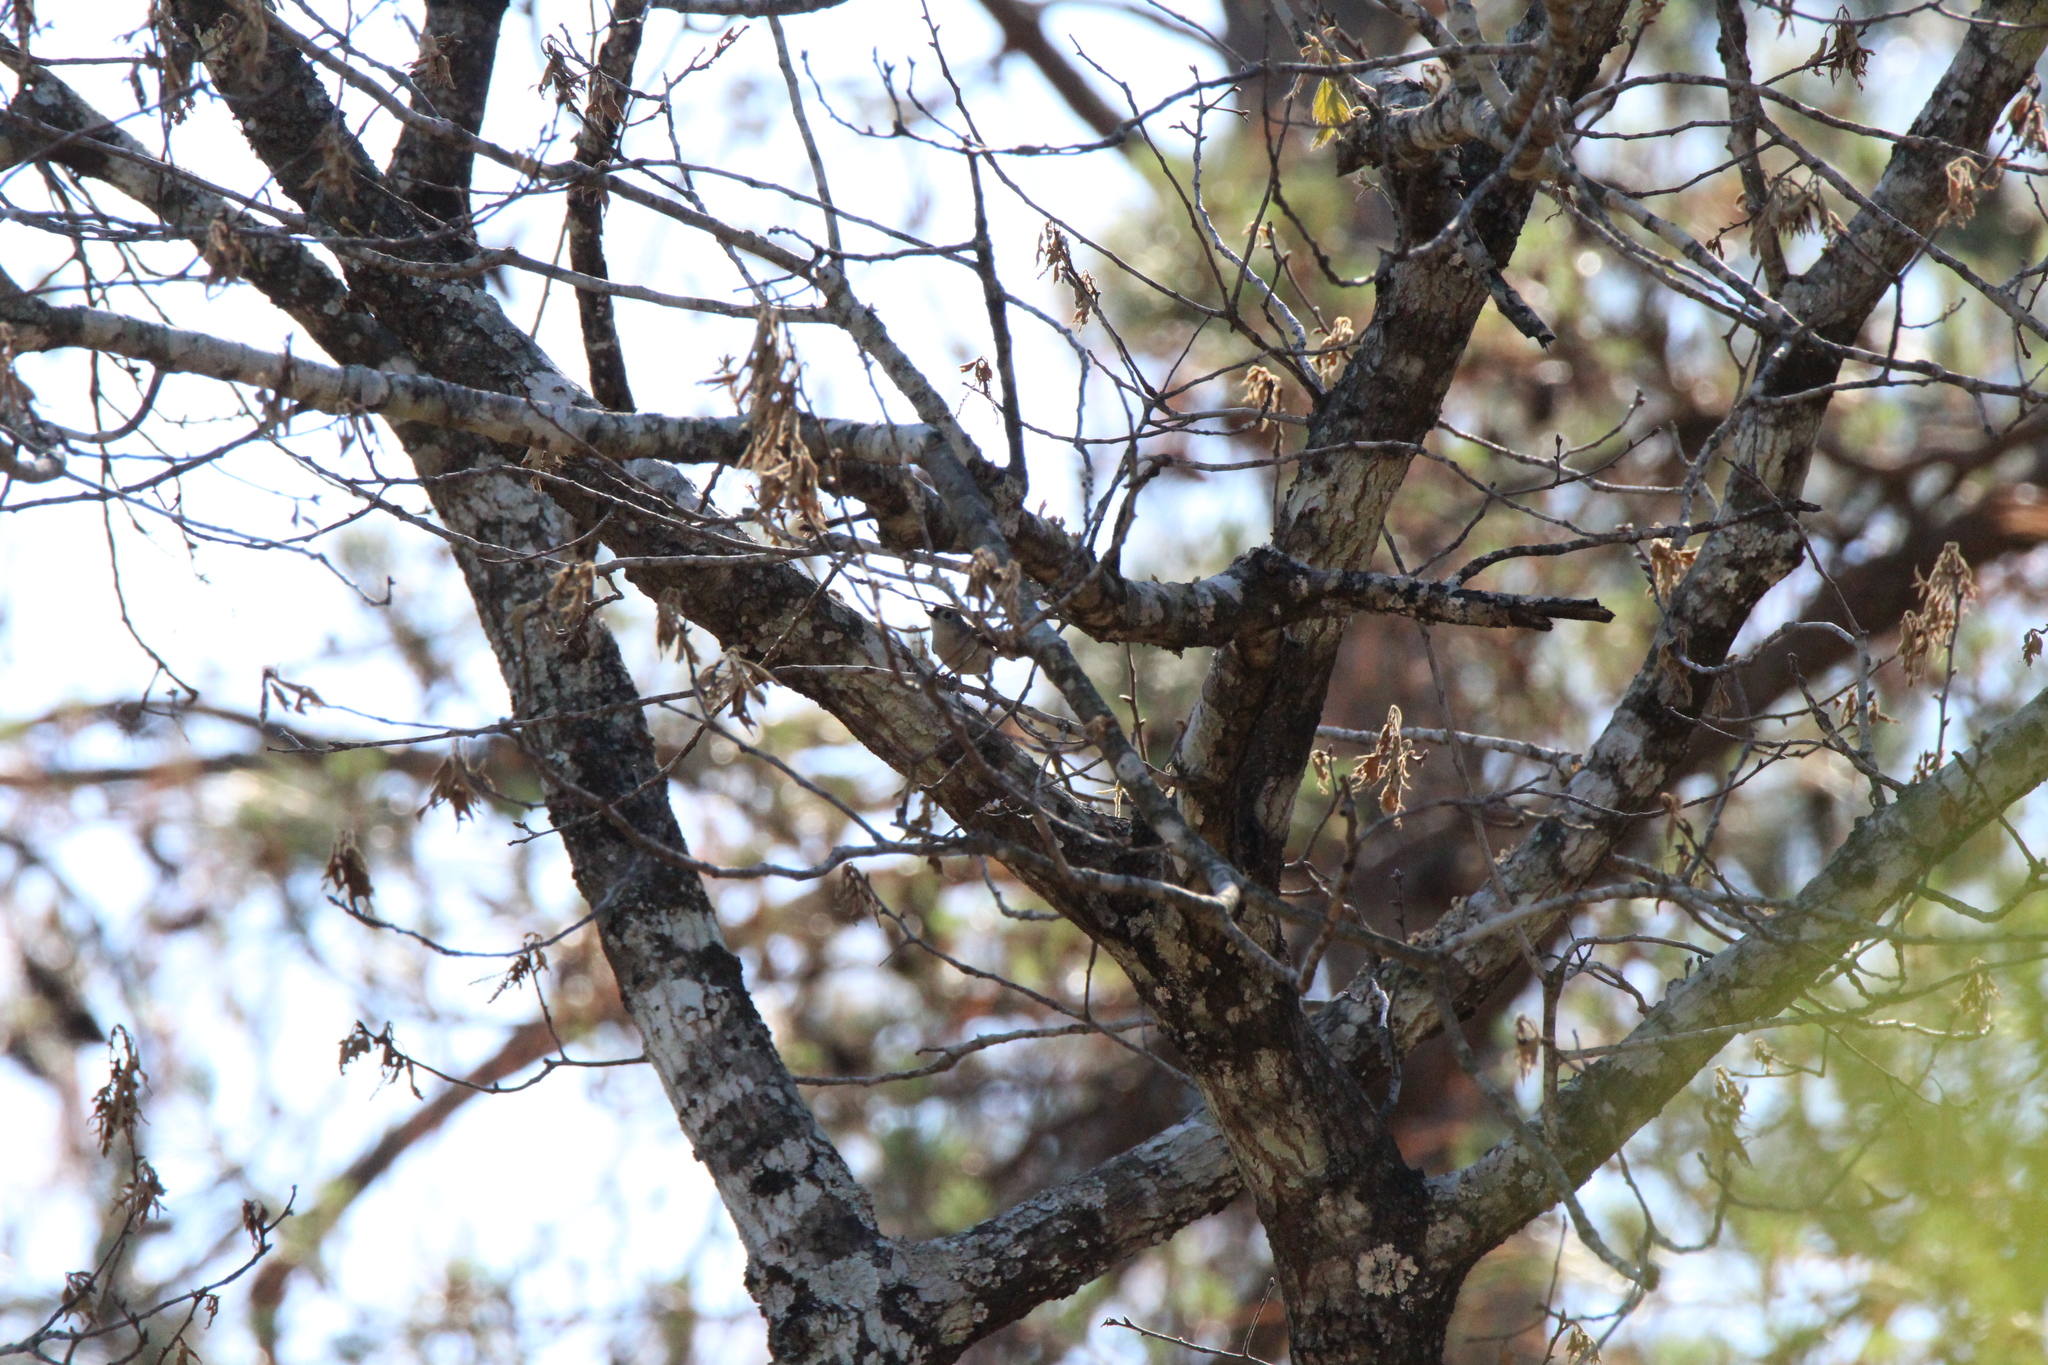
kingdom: Animalia
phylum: Chordata
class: Aves
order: Passeriformes
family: Paridae
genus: Baeolophus
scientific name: Baeolophus bicolor
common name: Tufted titmouse
